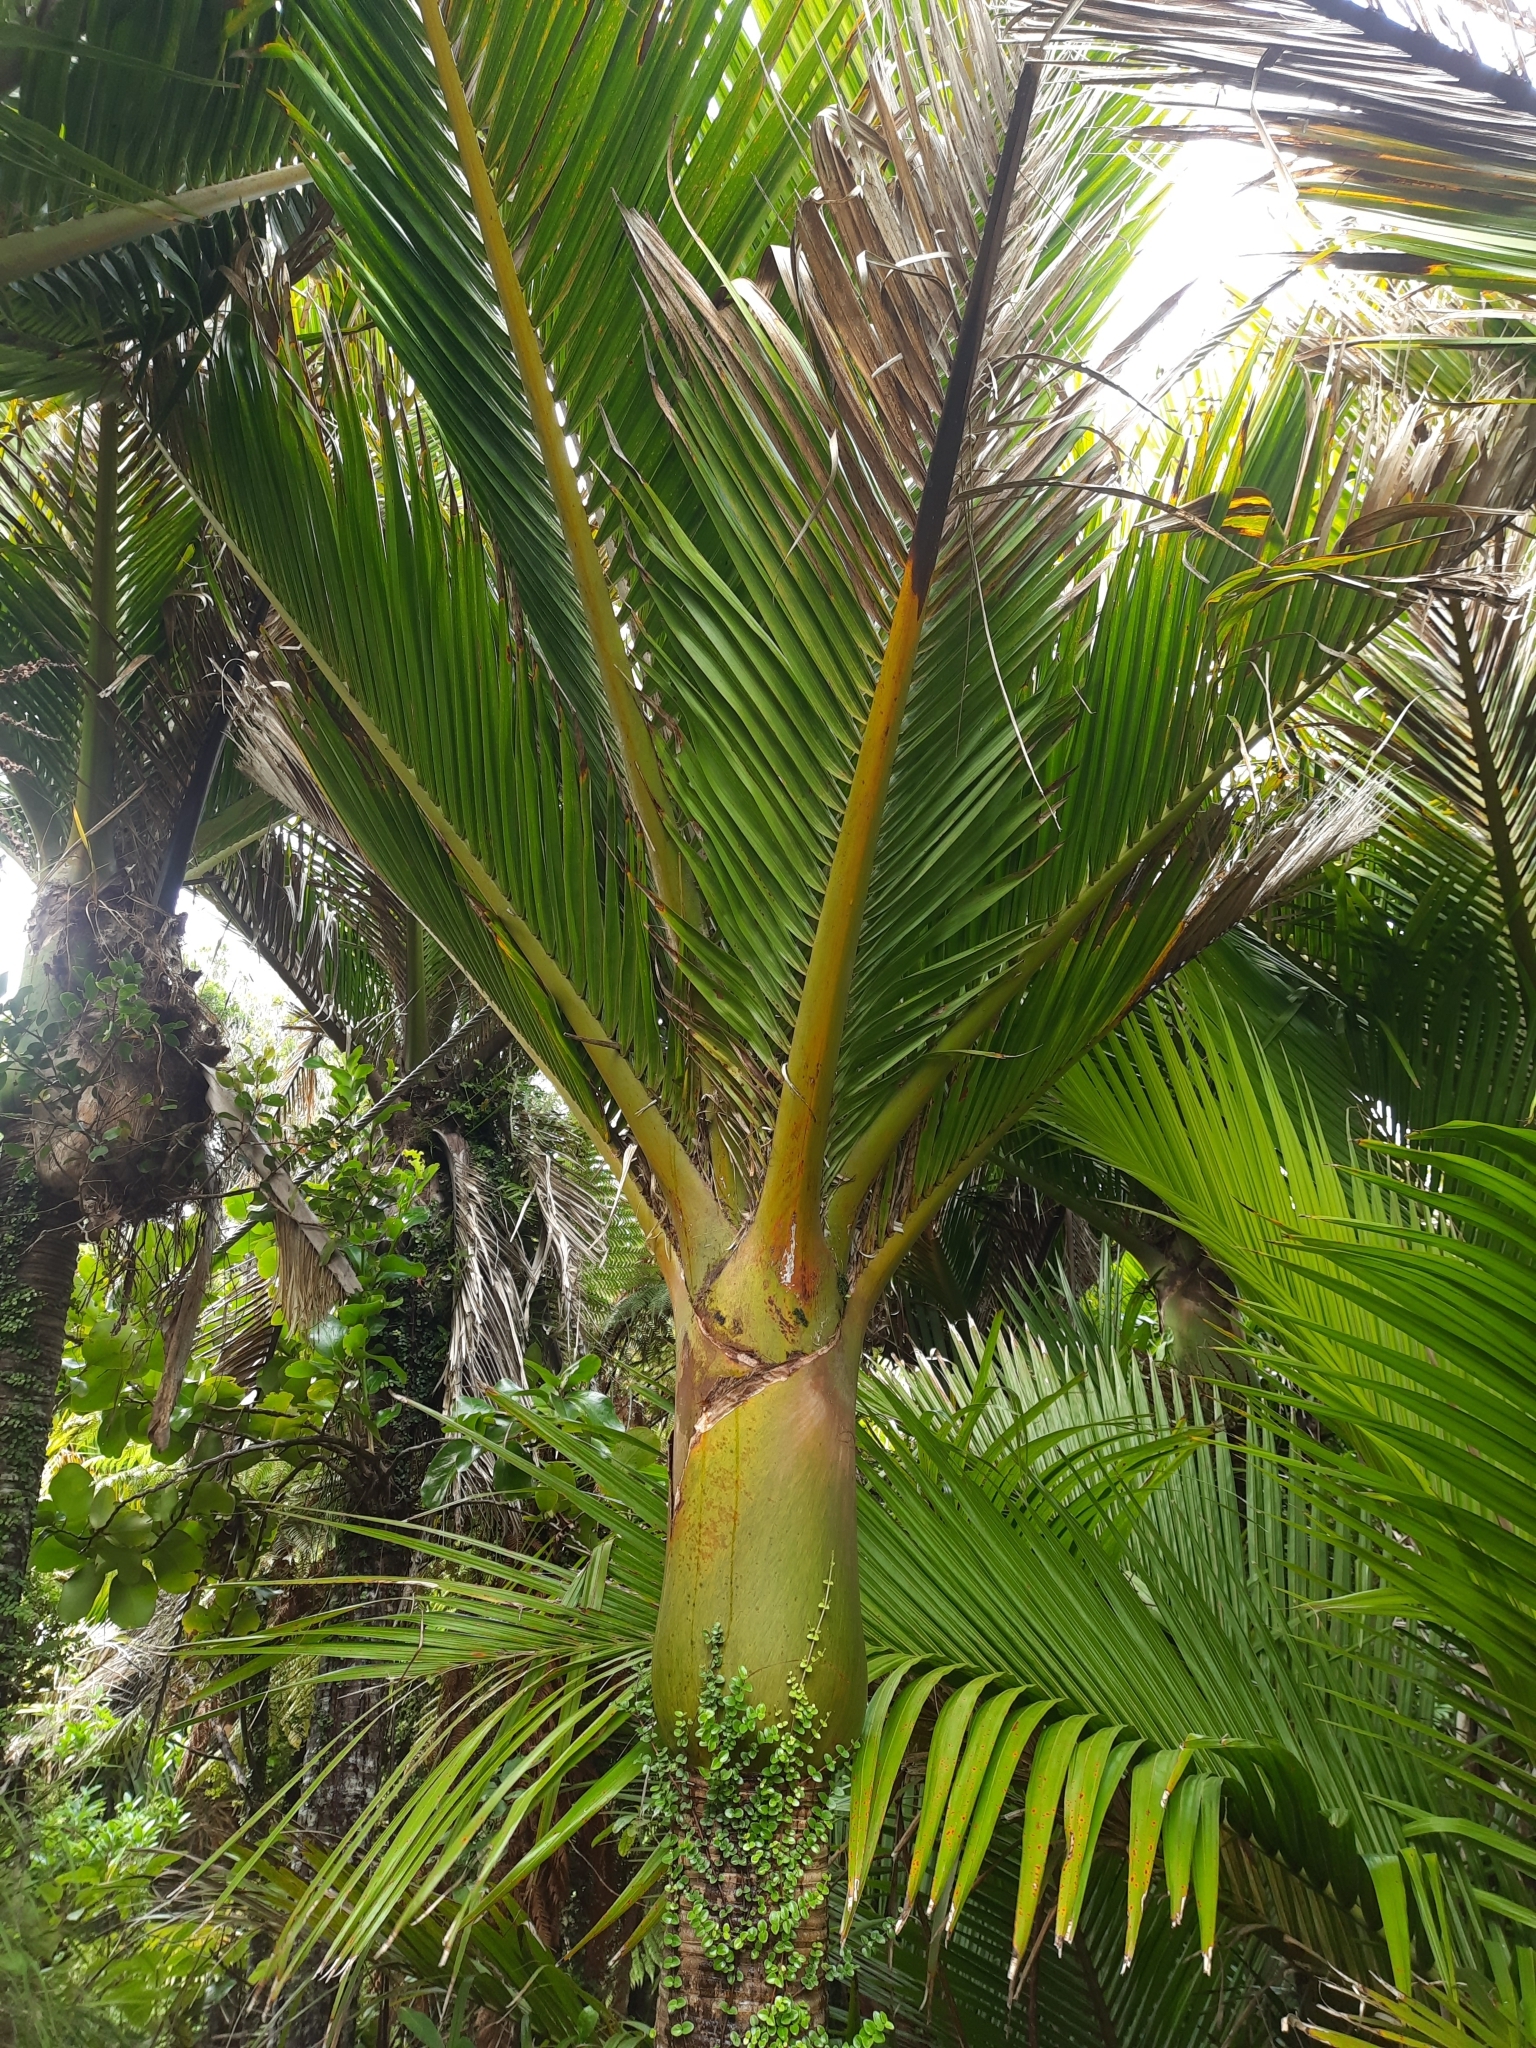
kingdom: Plantae
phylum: Tracheophyta
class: Liliopsida
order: Arecales
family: Arecaceae
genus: Rhopalostylis
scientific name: Rhopalostylis sapida
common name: Feather-duster palm
